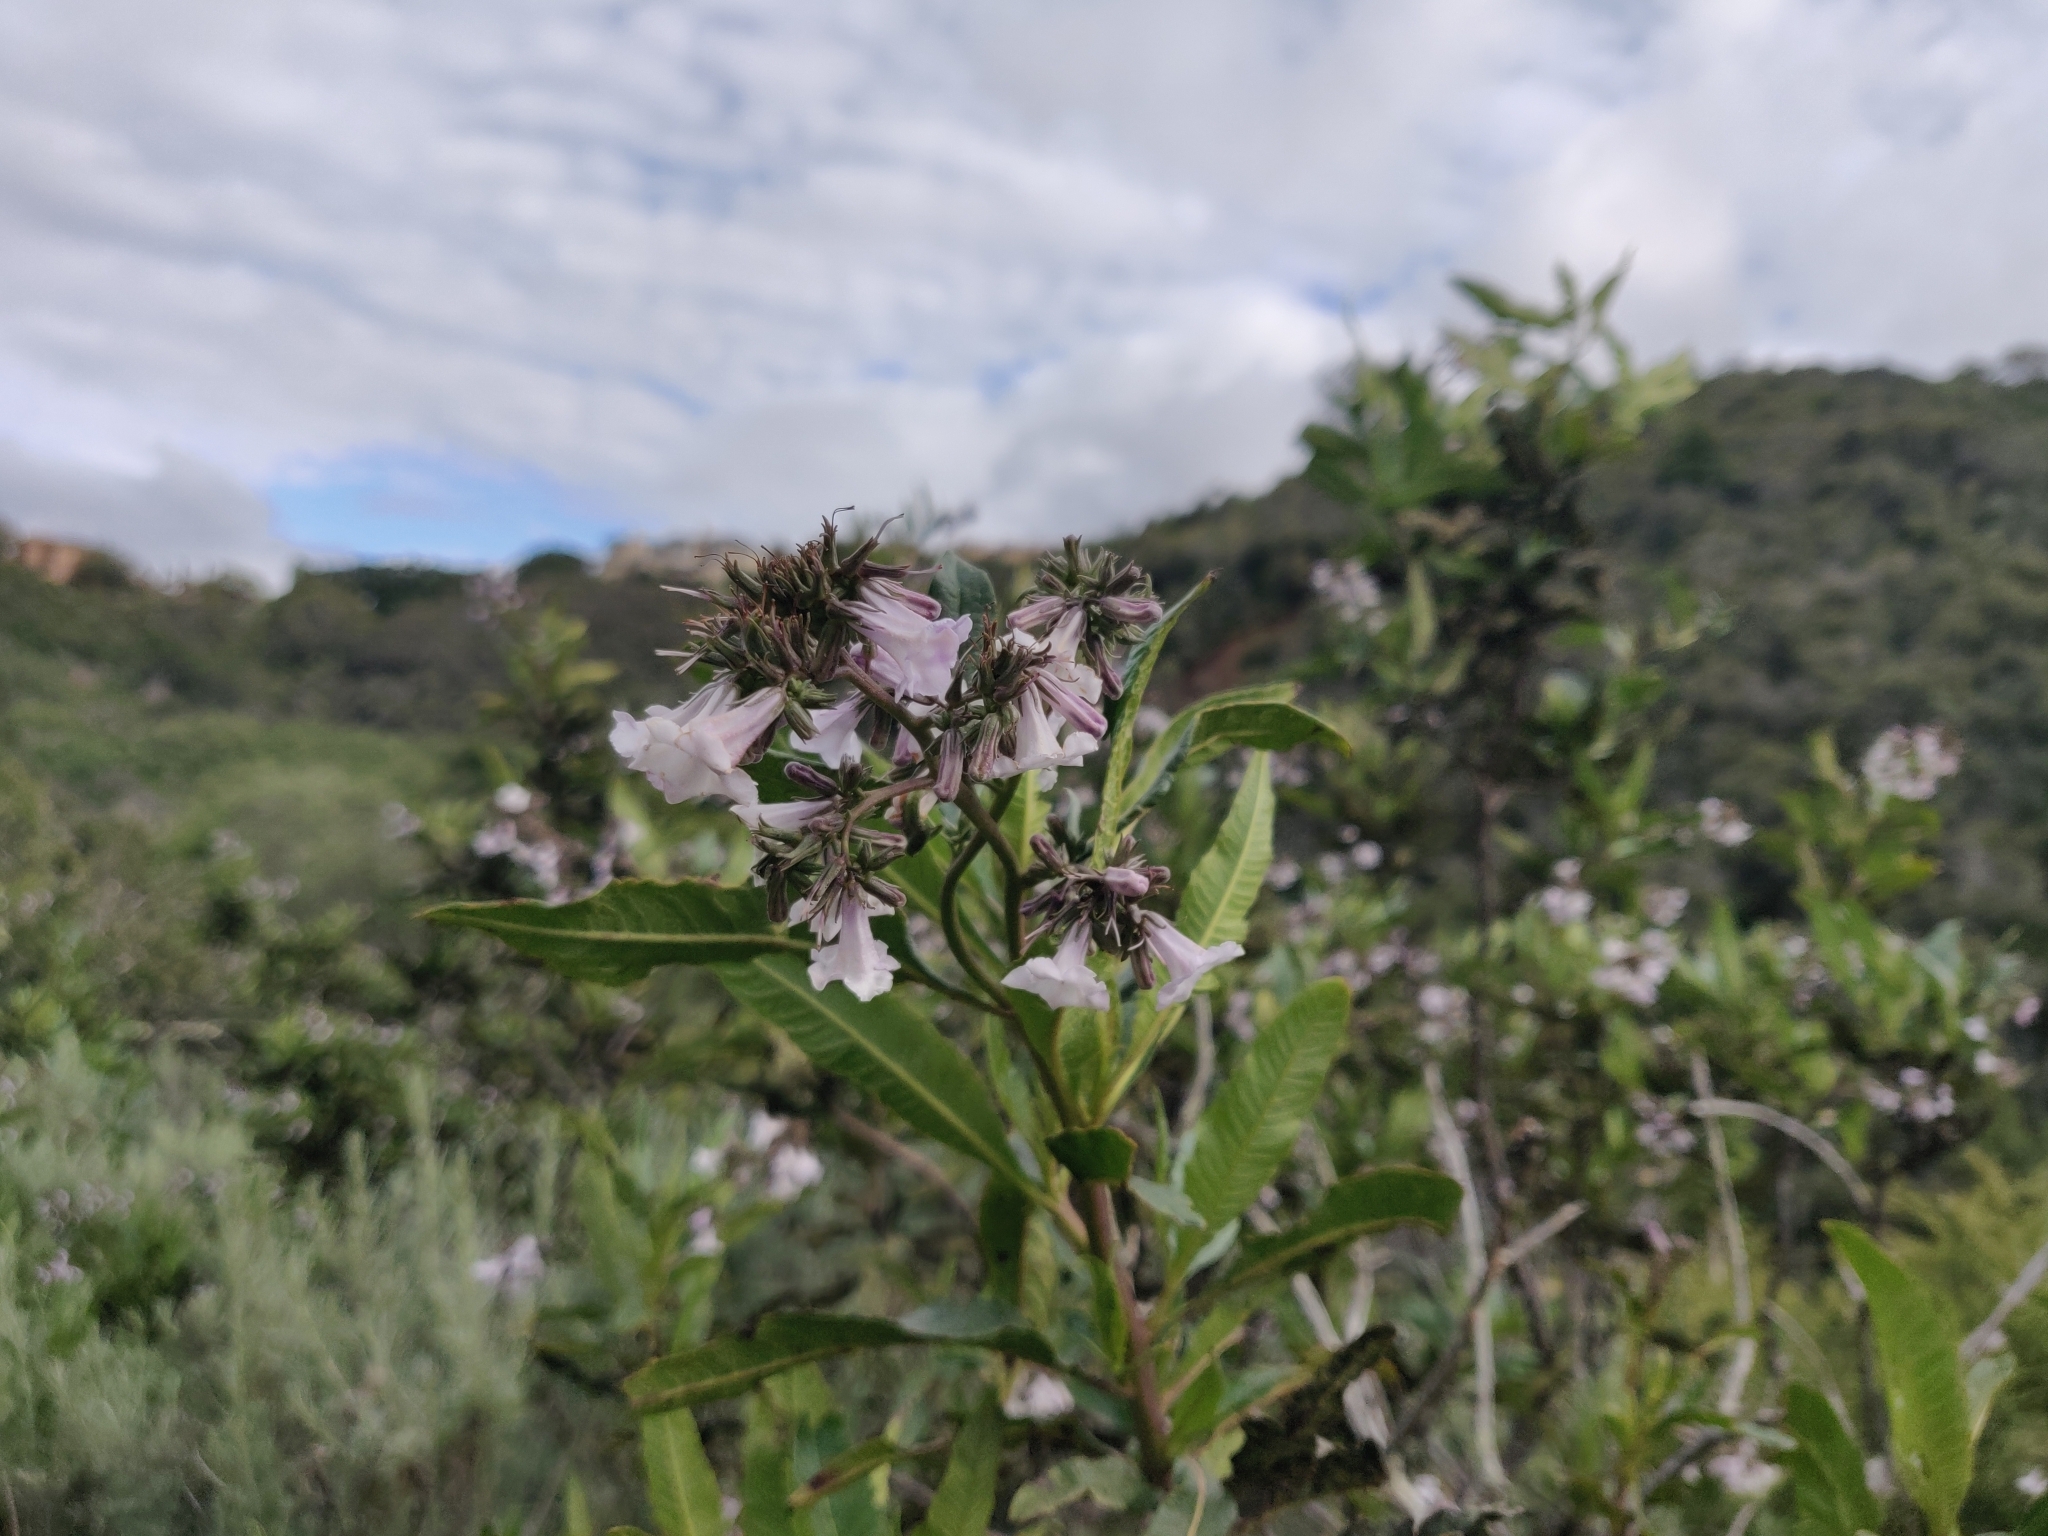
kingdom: Plantae
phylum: Tracheophyta
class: Magnoliopsida
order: Boraginales
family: Namaceae
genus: Eriodictyon
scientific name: Eriodictyon californicum
